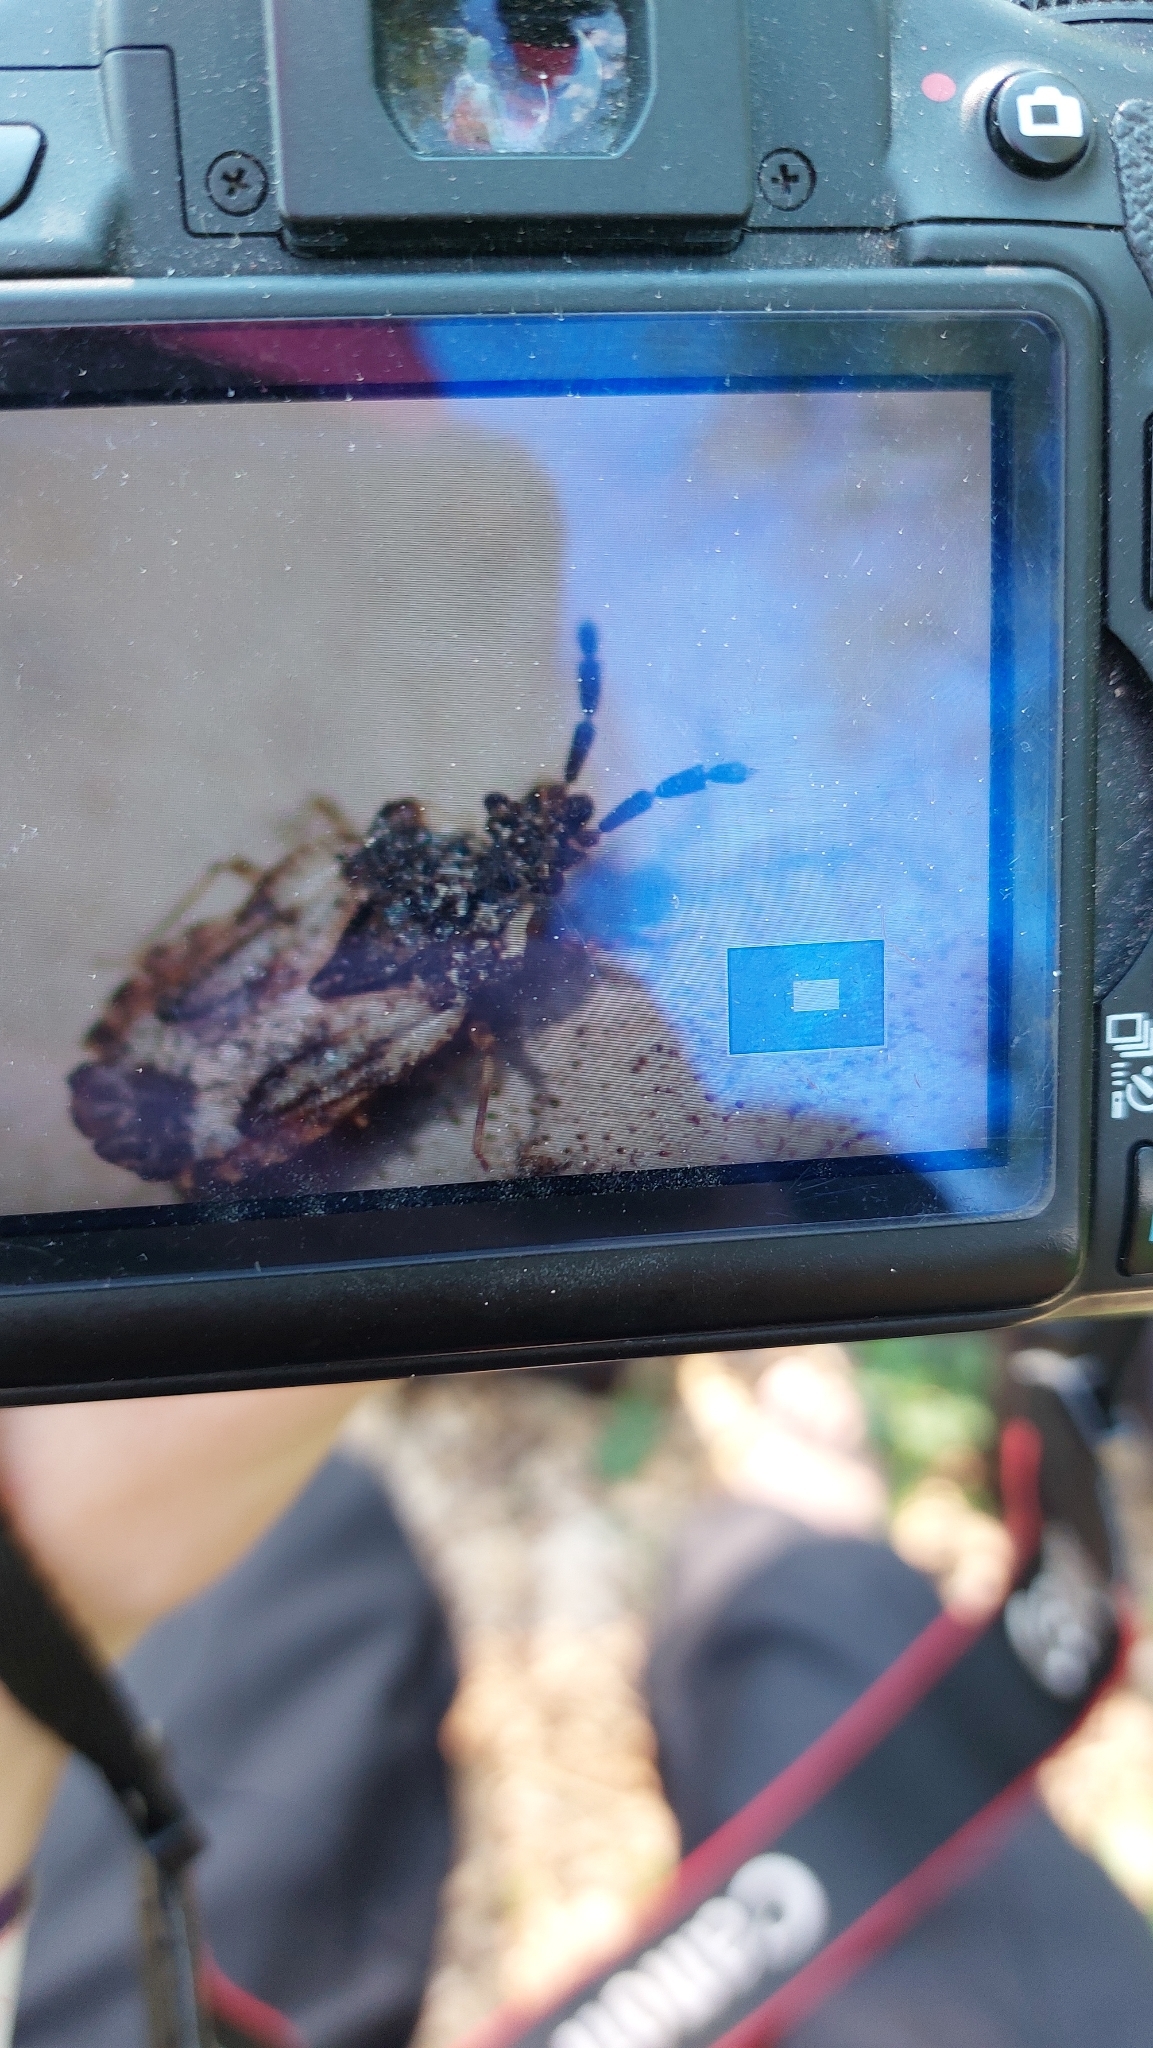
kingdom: Animalia
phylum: Arthropoda
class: Insecta
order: Hemiptera
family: Aradidae
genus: Aradus
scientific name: Aradus depressus
